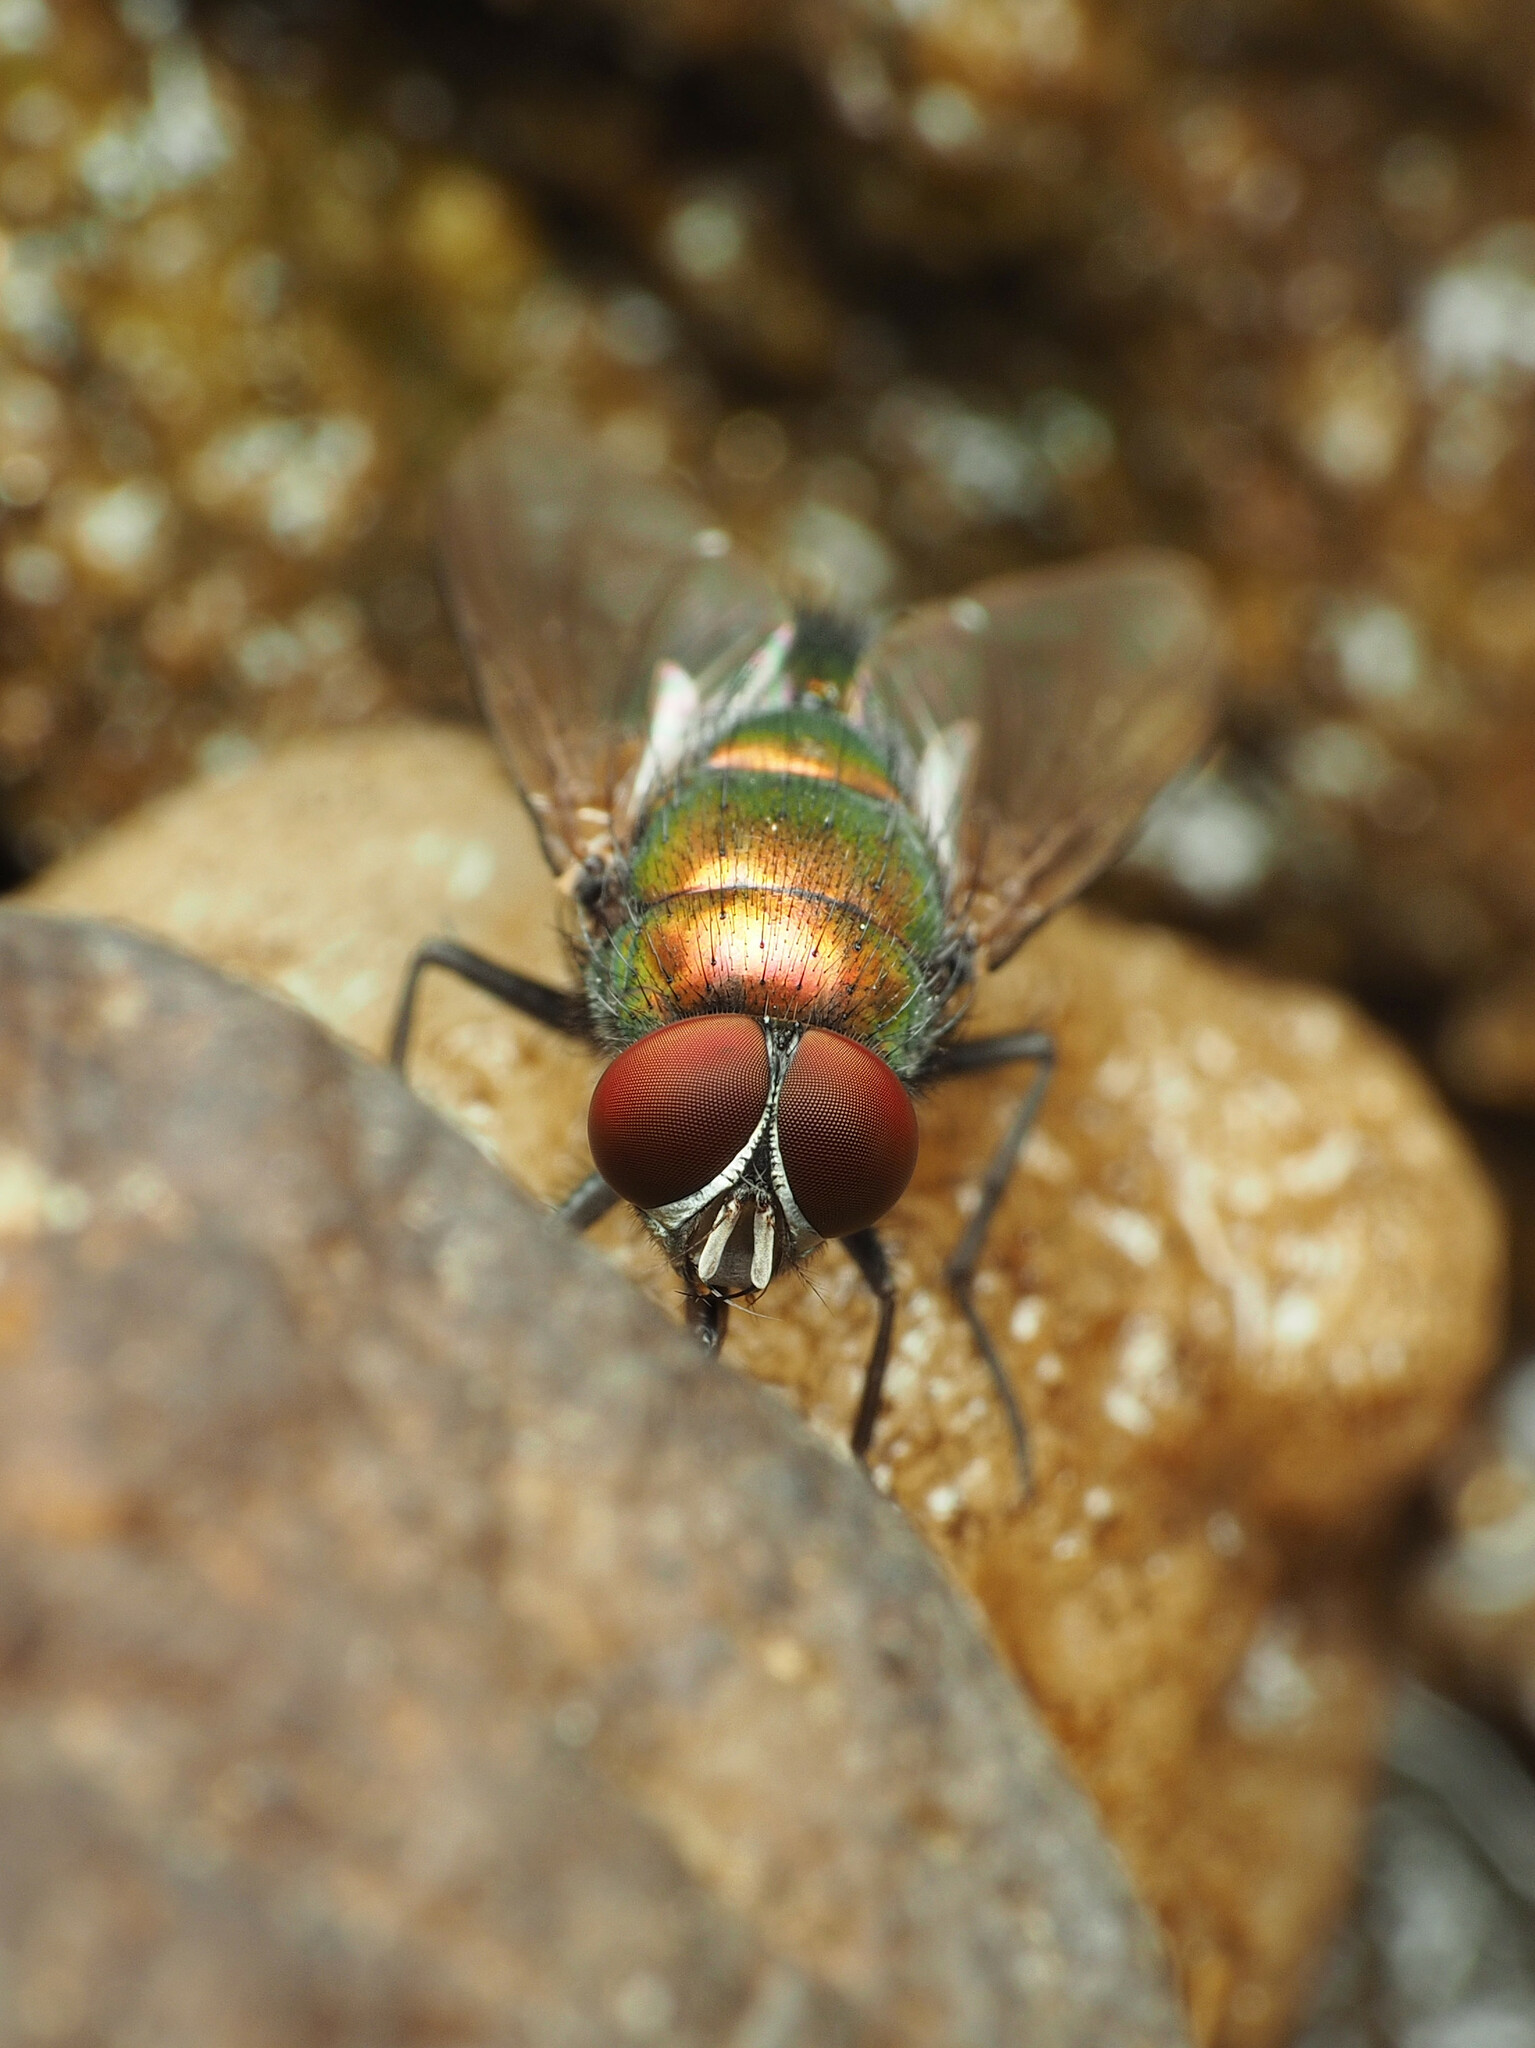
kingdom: Animalia
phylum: Arthropoda
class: Insecta
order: Diptera
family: Calliphoridae
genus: Lucilia
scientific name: Lucilia illustris
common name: Illustrious greenbottle
